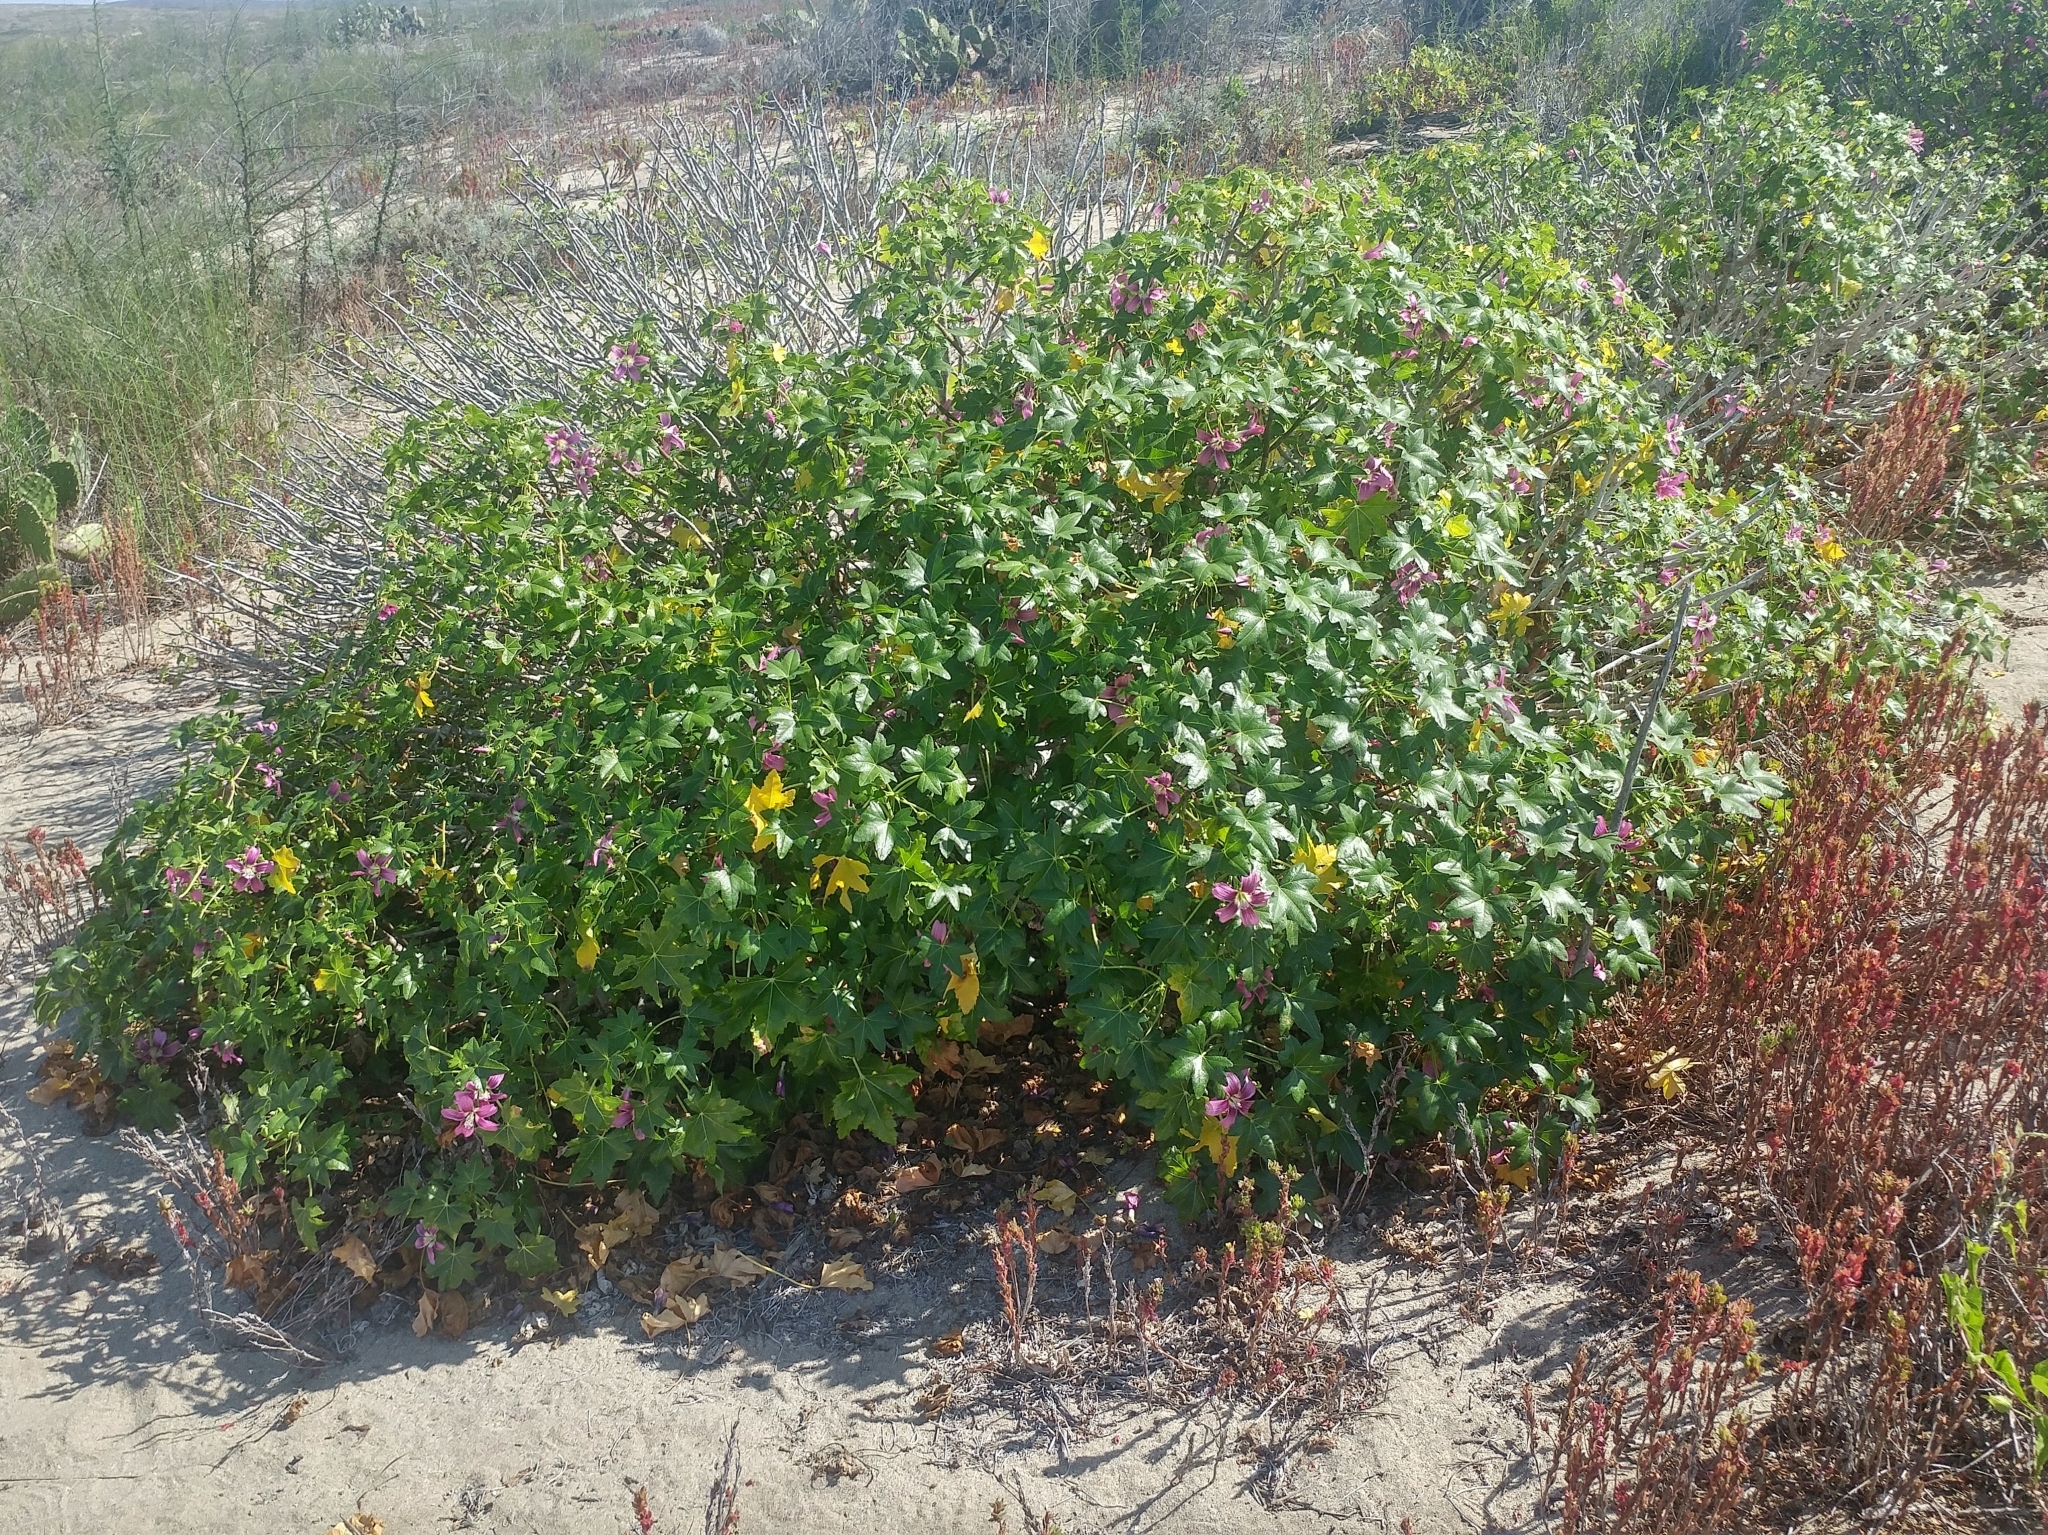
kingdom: Plantae
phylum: Tracheophyta
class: Magnoliopsida
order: Malvales
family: Malvaceae
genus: Malva
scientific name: Malva assurgentiflora
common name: Island mallow
